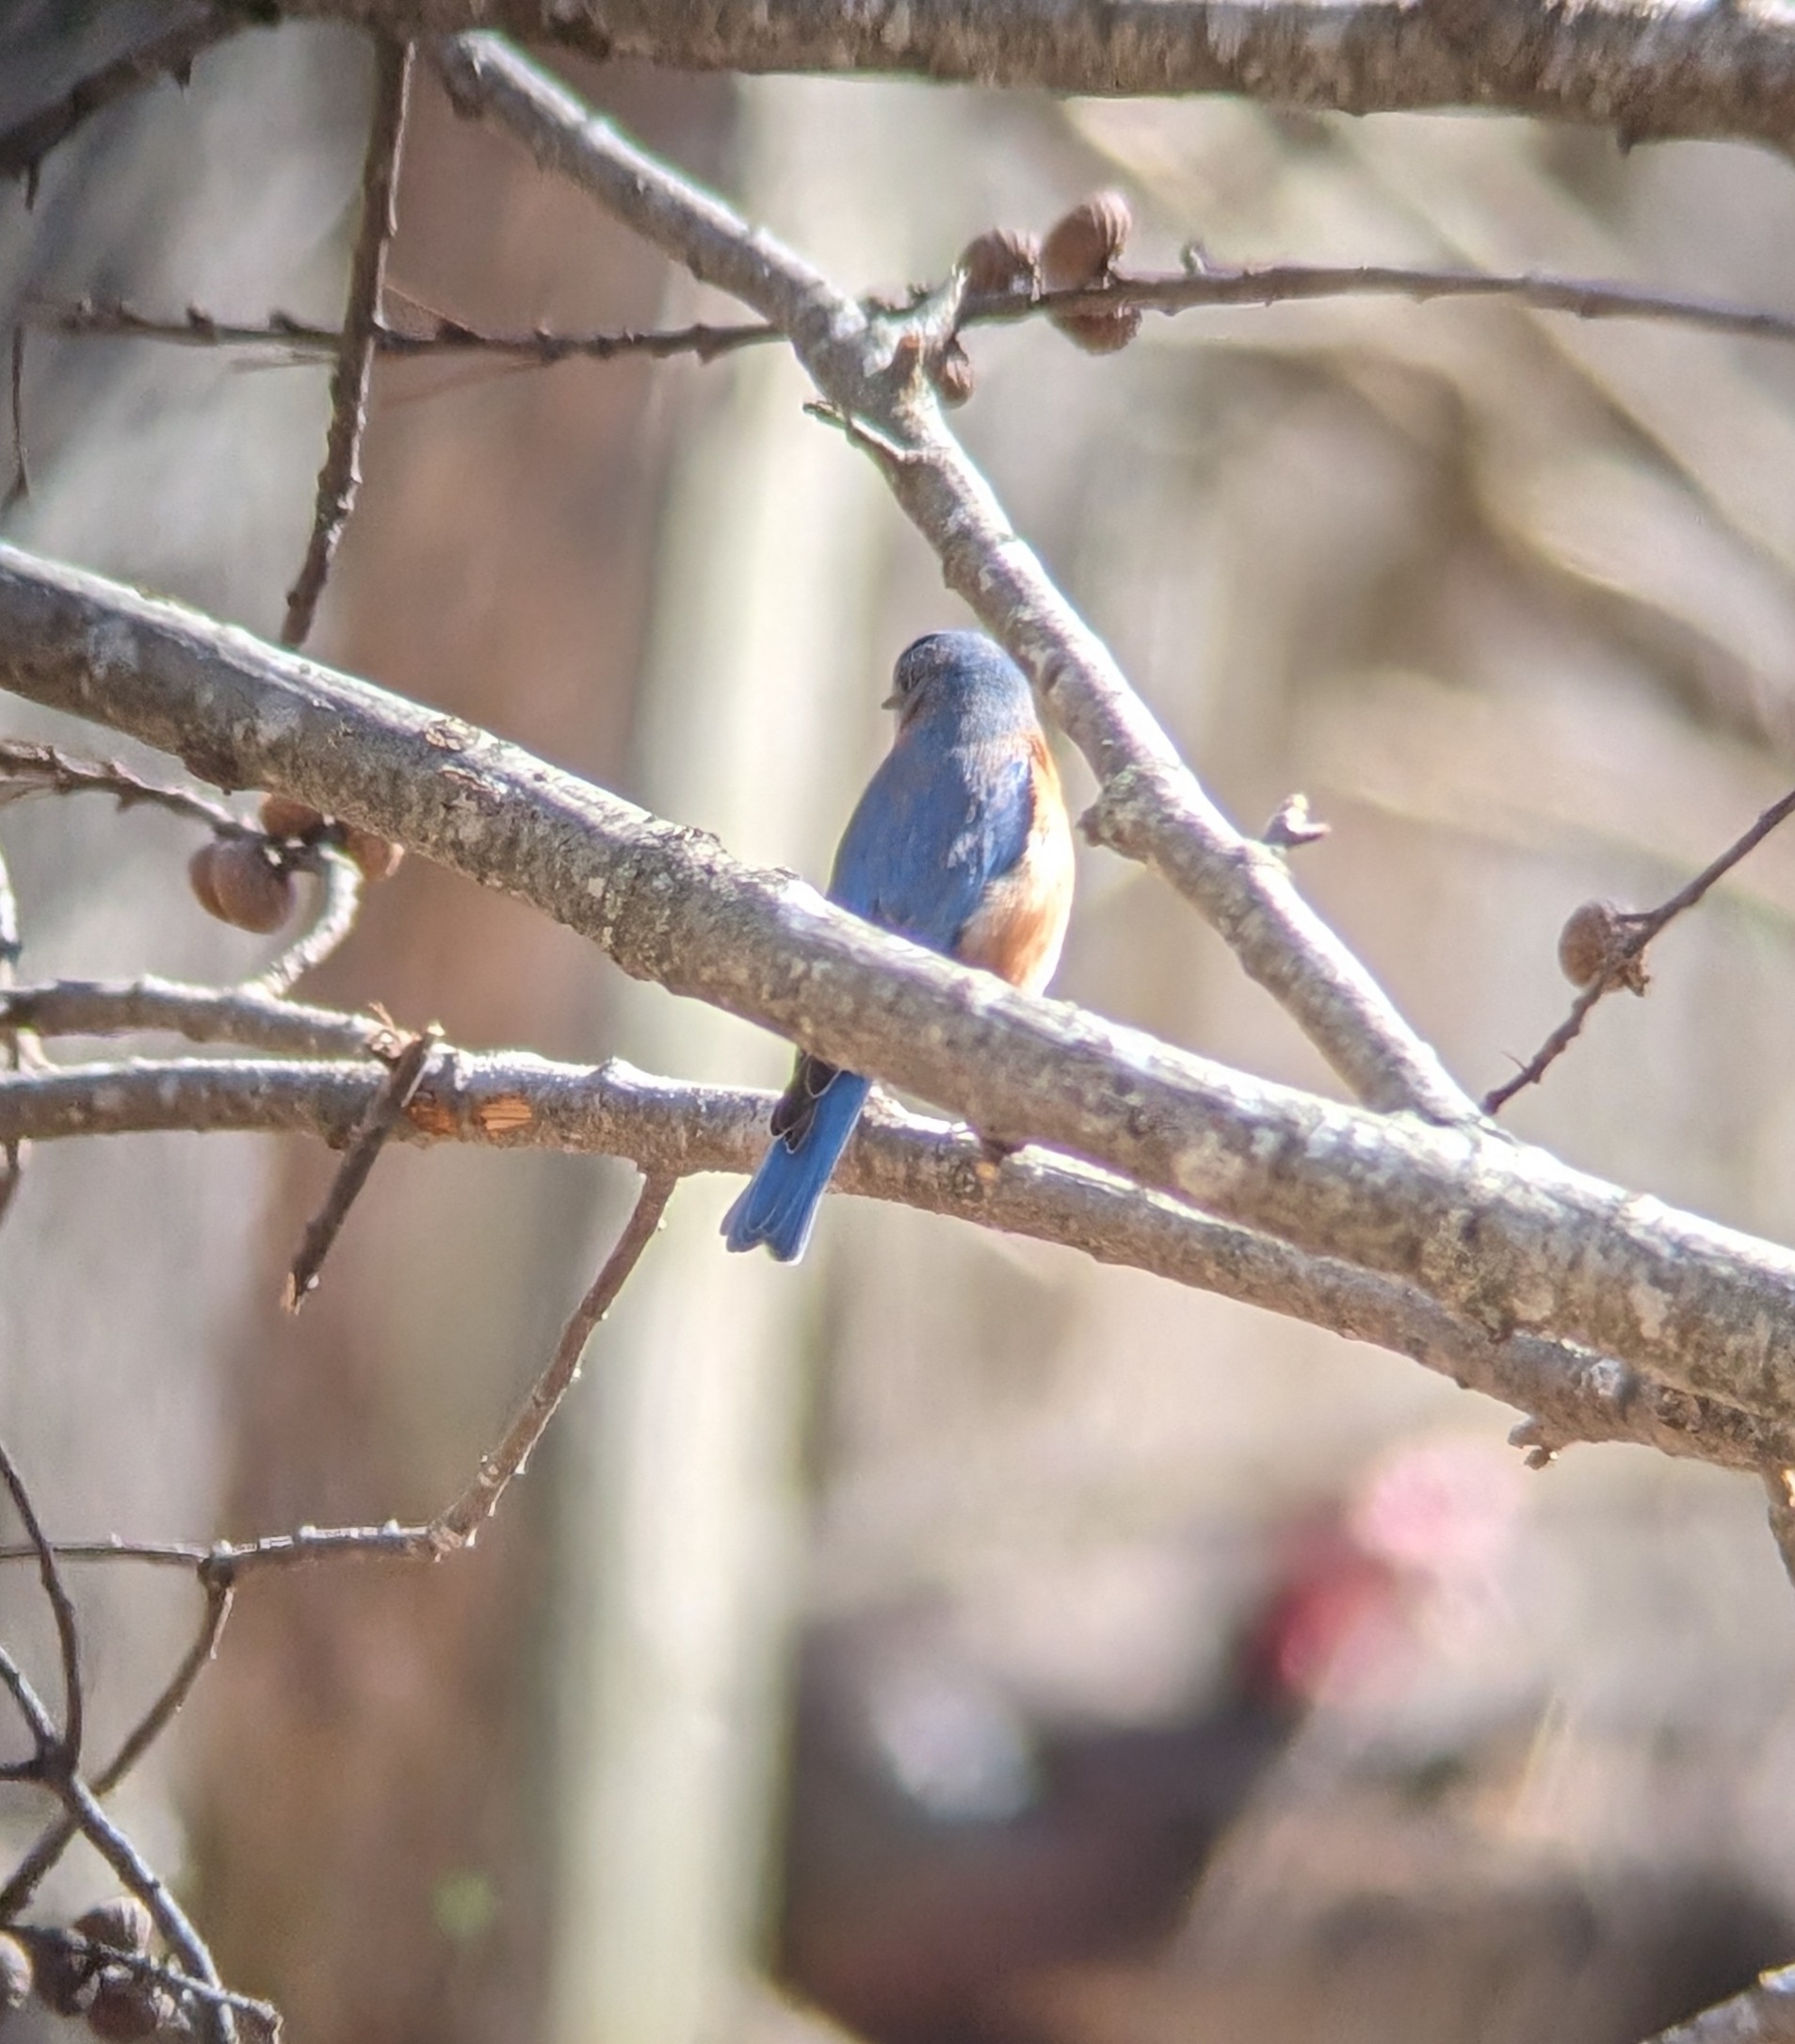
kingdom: Animalia
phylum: Chordata
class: Aves
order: Passeriformes
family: Turdidae
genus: Sialia
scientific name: Sialia sialis
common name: Eastern bluebird
